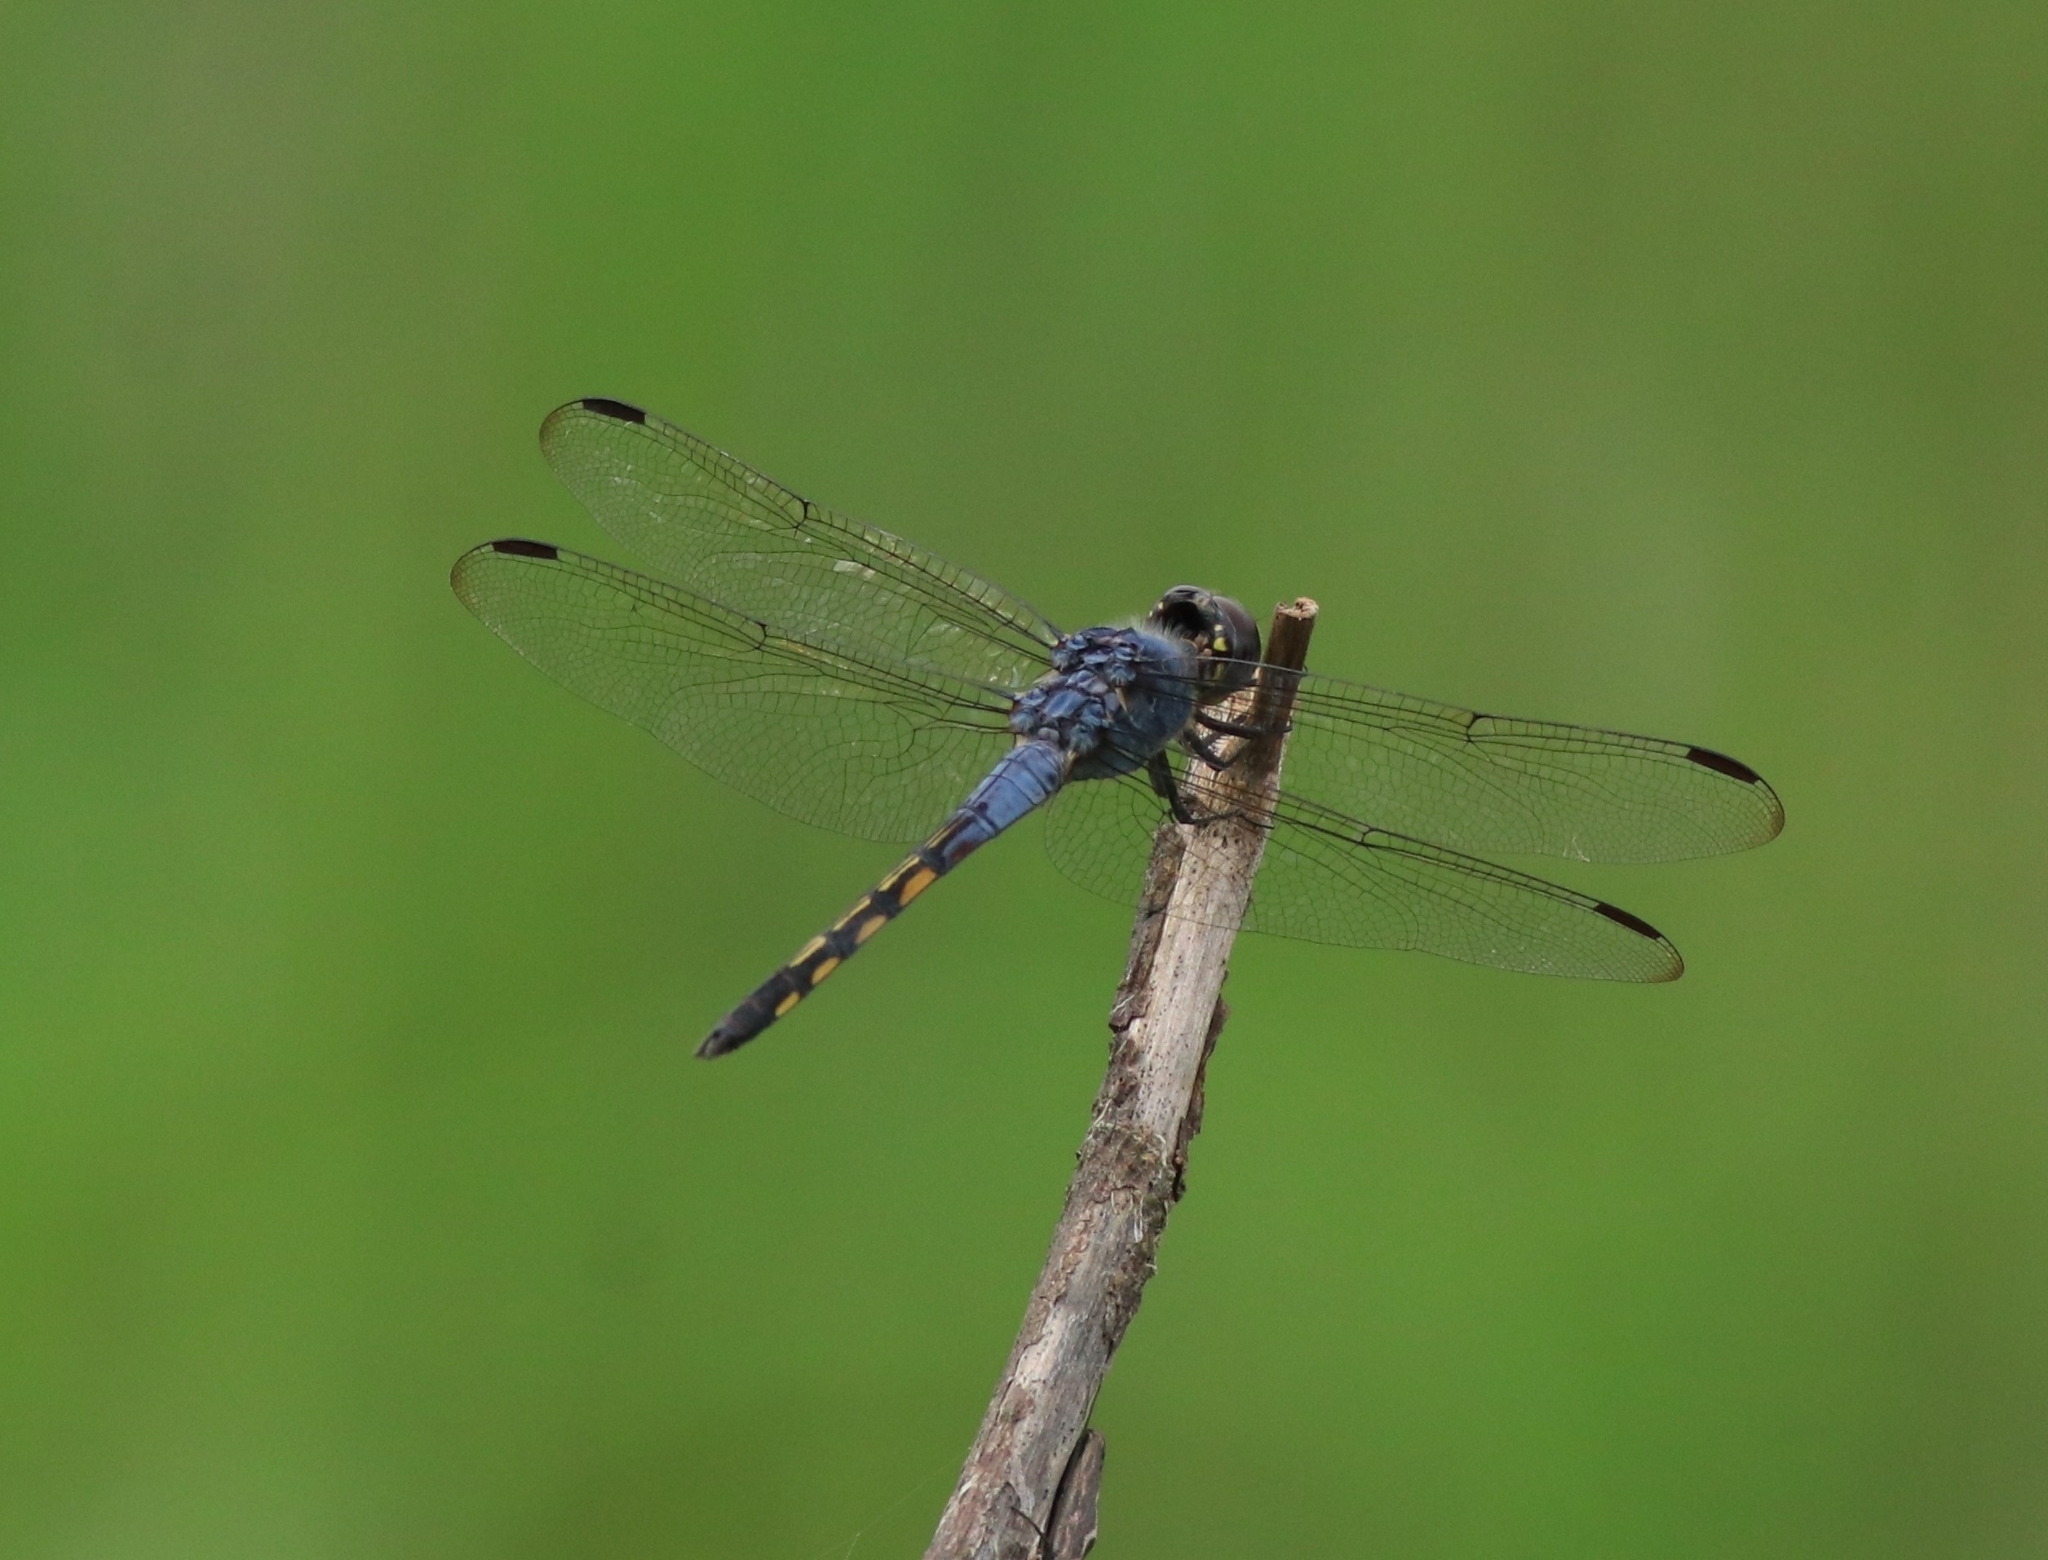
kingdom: Animalia
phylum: Arthropoda
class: Insecta
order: Odonata
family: Libellulidae
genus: Potamarcha
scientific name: Potamarcha congener
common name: Blue chaser
